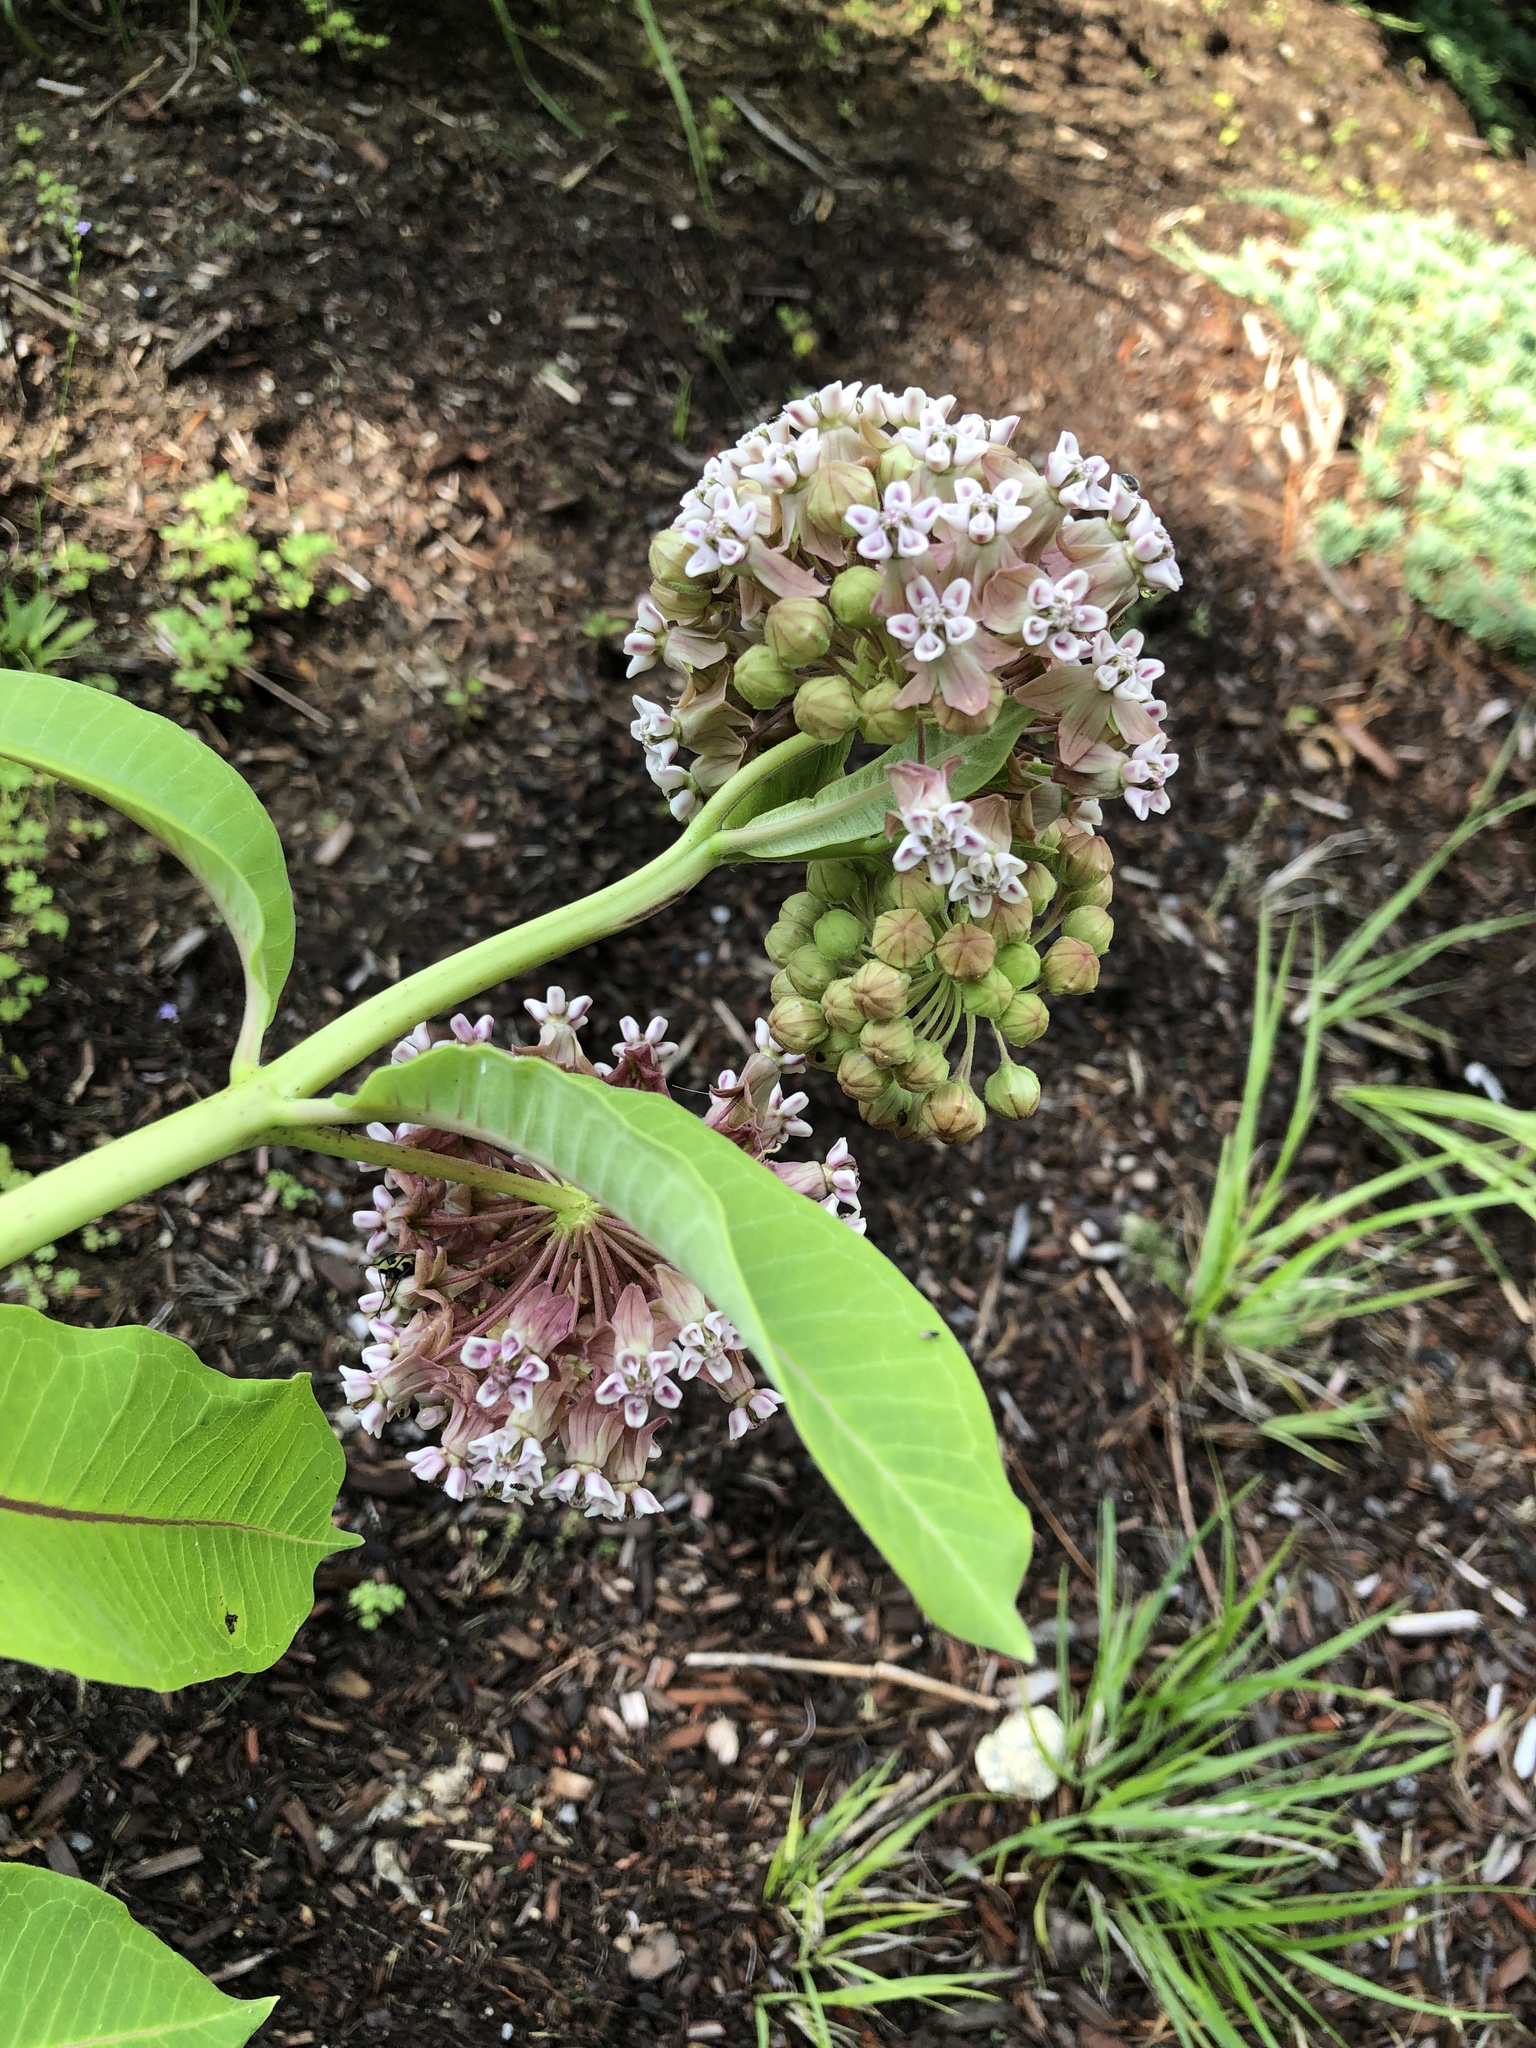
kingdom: Plantae
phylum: Tracheophyta
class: Magnoliopsida
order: Gentianales
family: Apocynaceae
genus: Asclepias
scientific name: Asclepias syriaca
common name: Common milkweed
